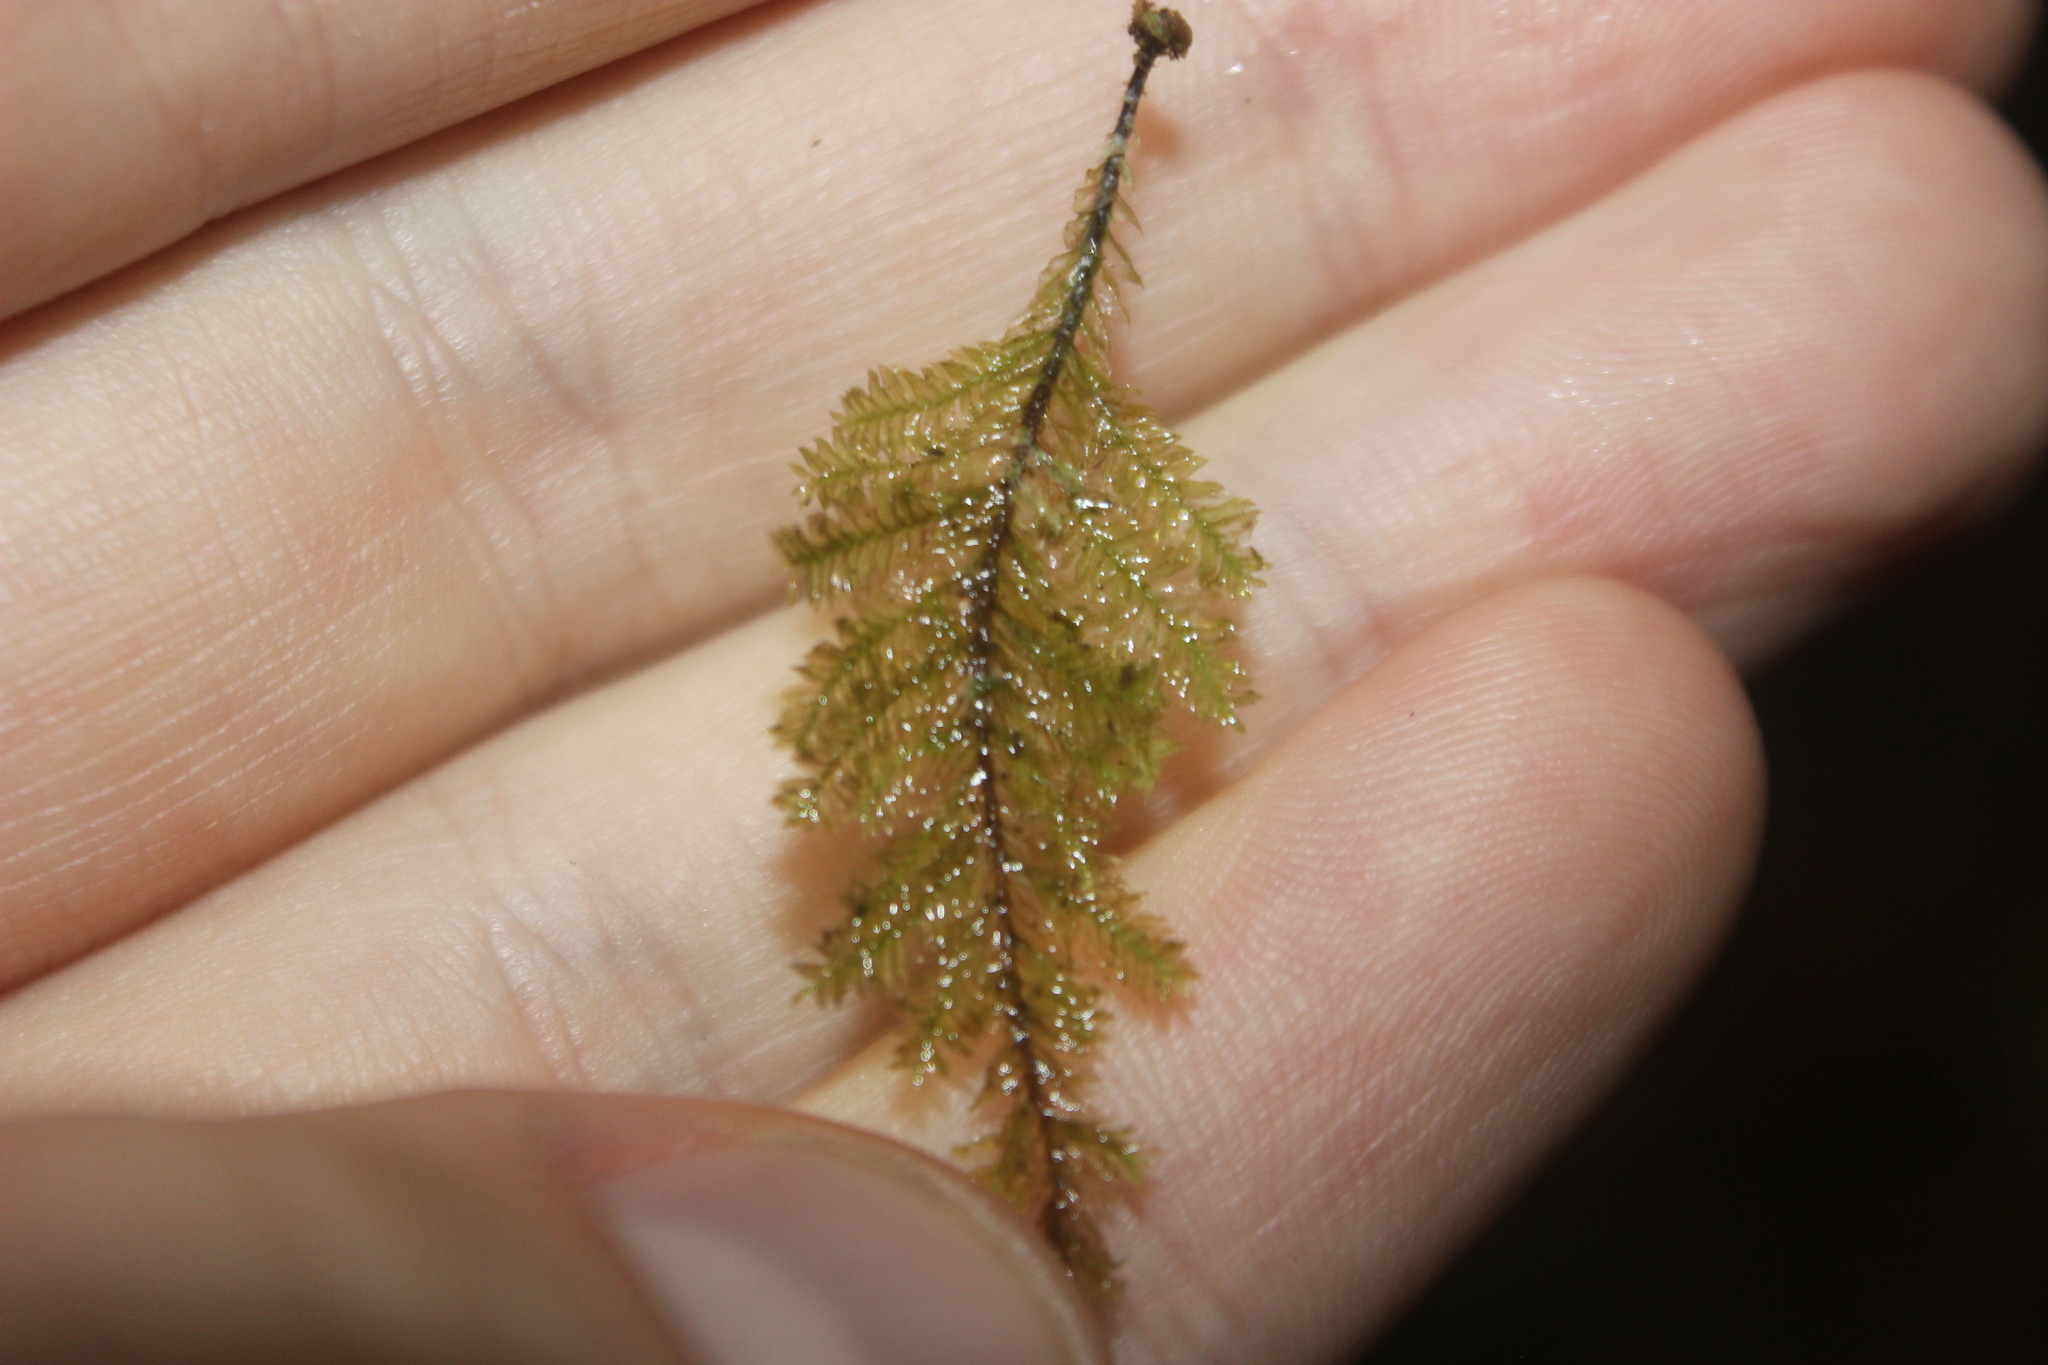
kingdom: Plantae
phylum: Bryophyta
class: Bryopsida
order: Hypopterygiales
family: Hypopterygiaceae
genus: Lopidium
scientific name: Lopidium concinnum
